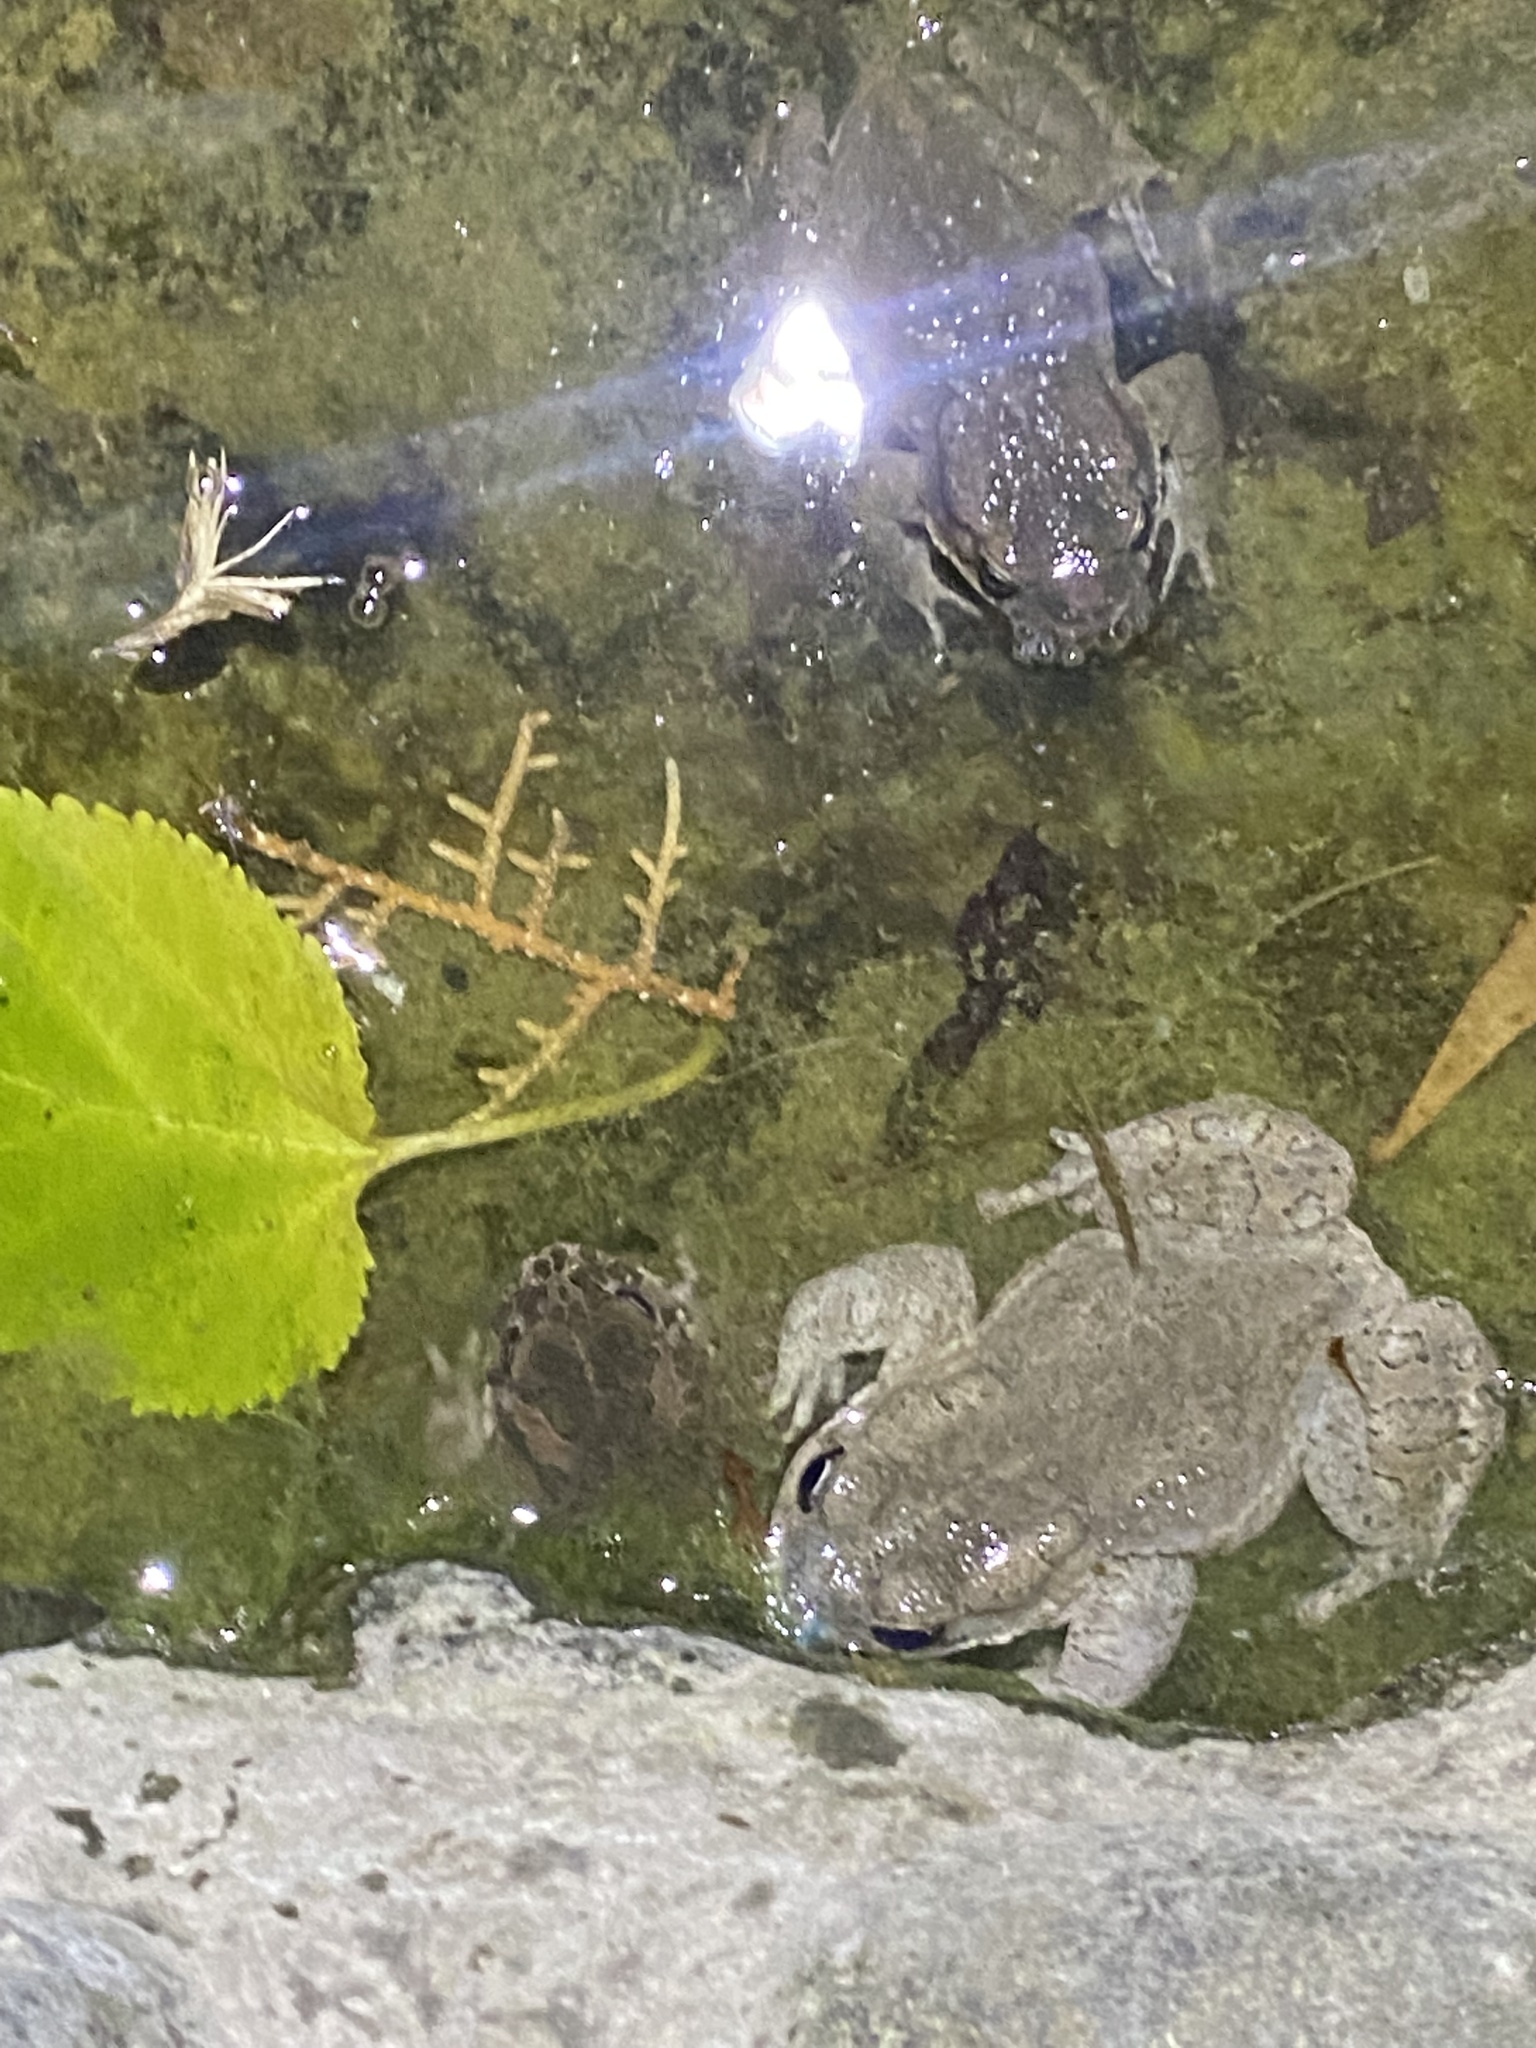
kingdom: Animalia
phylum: Chordata
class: Amphibia
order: Anura
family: Bufonidae
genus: Bufotes
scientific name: Bufotes viridis
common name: European green toad
